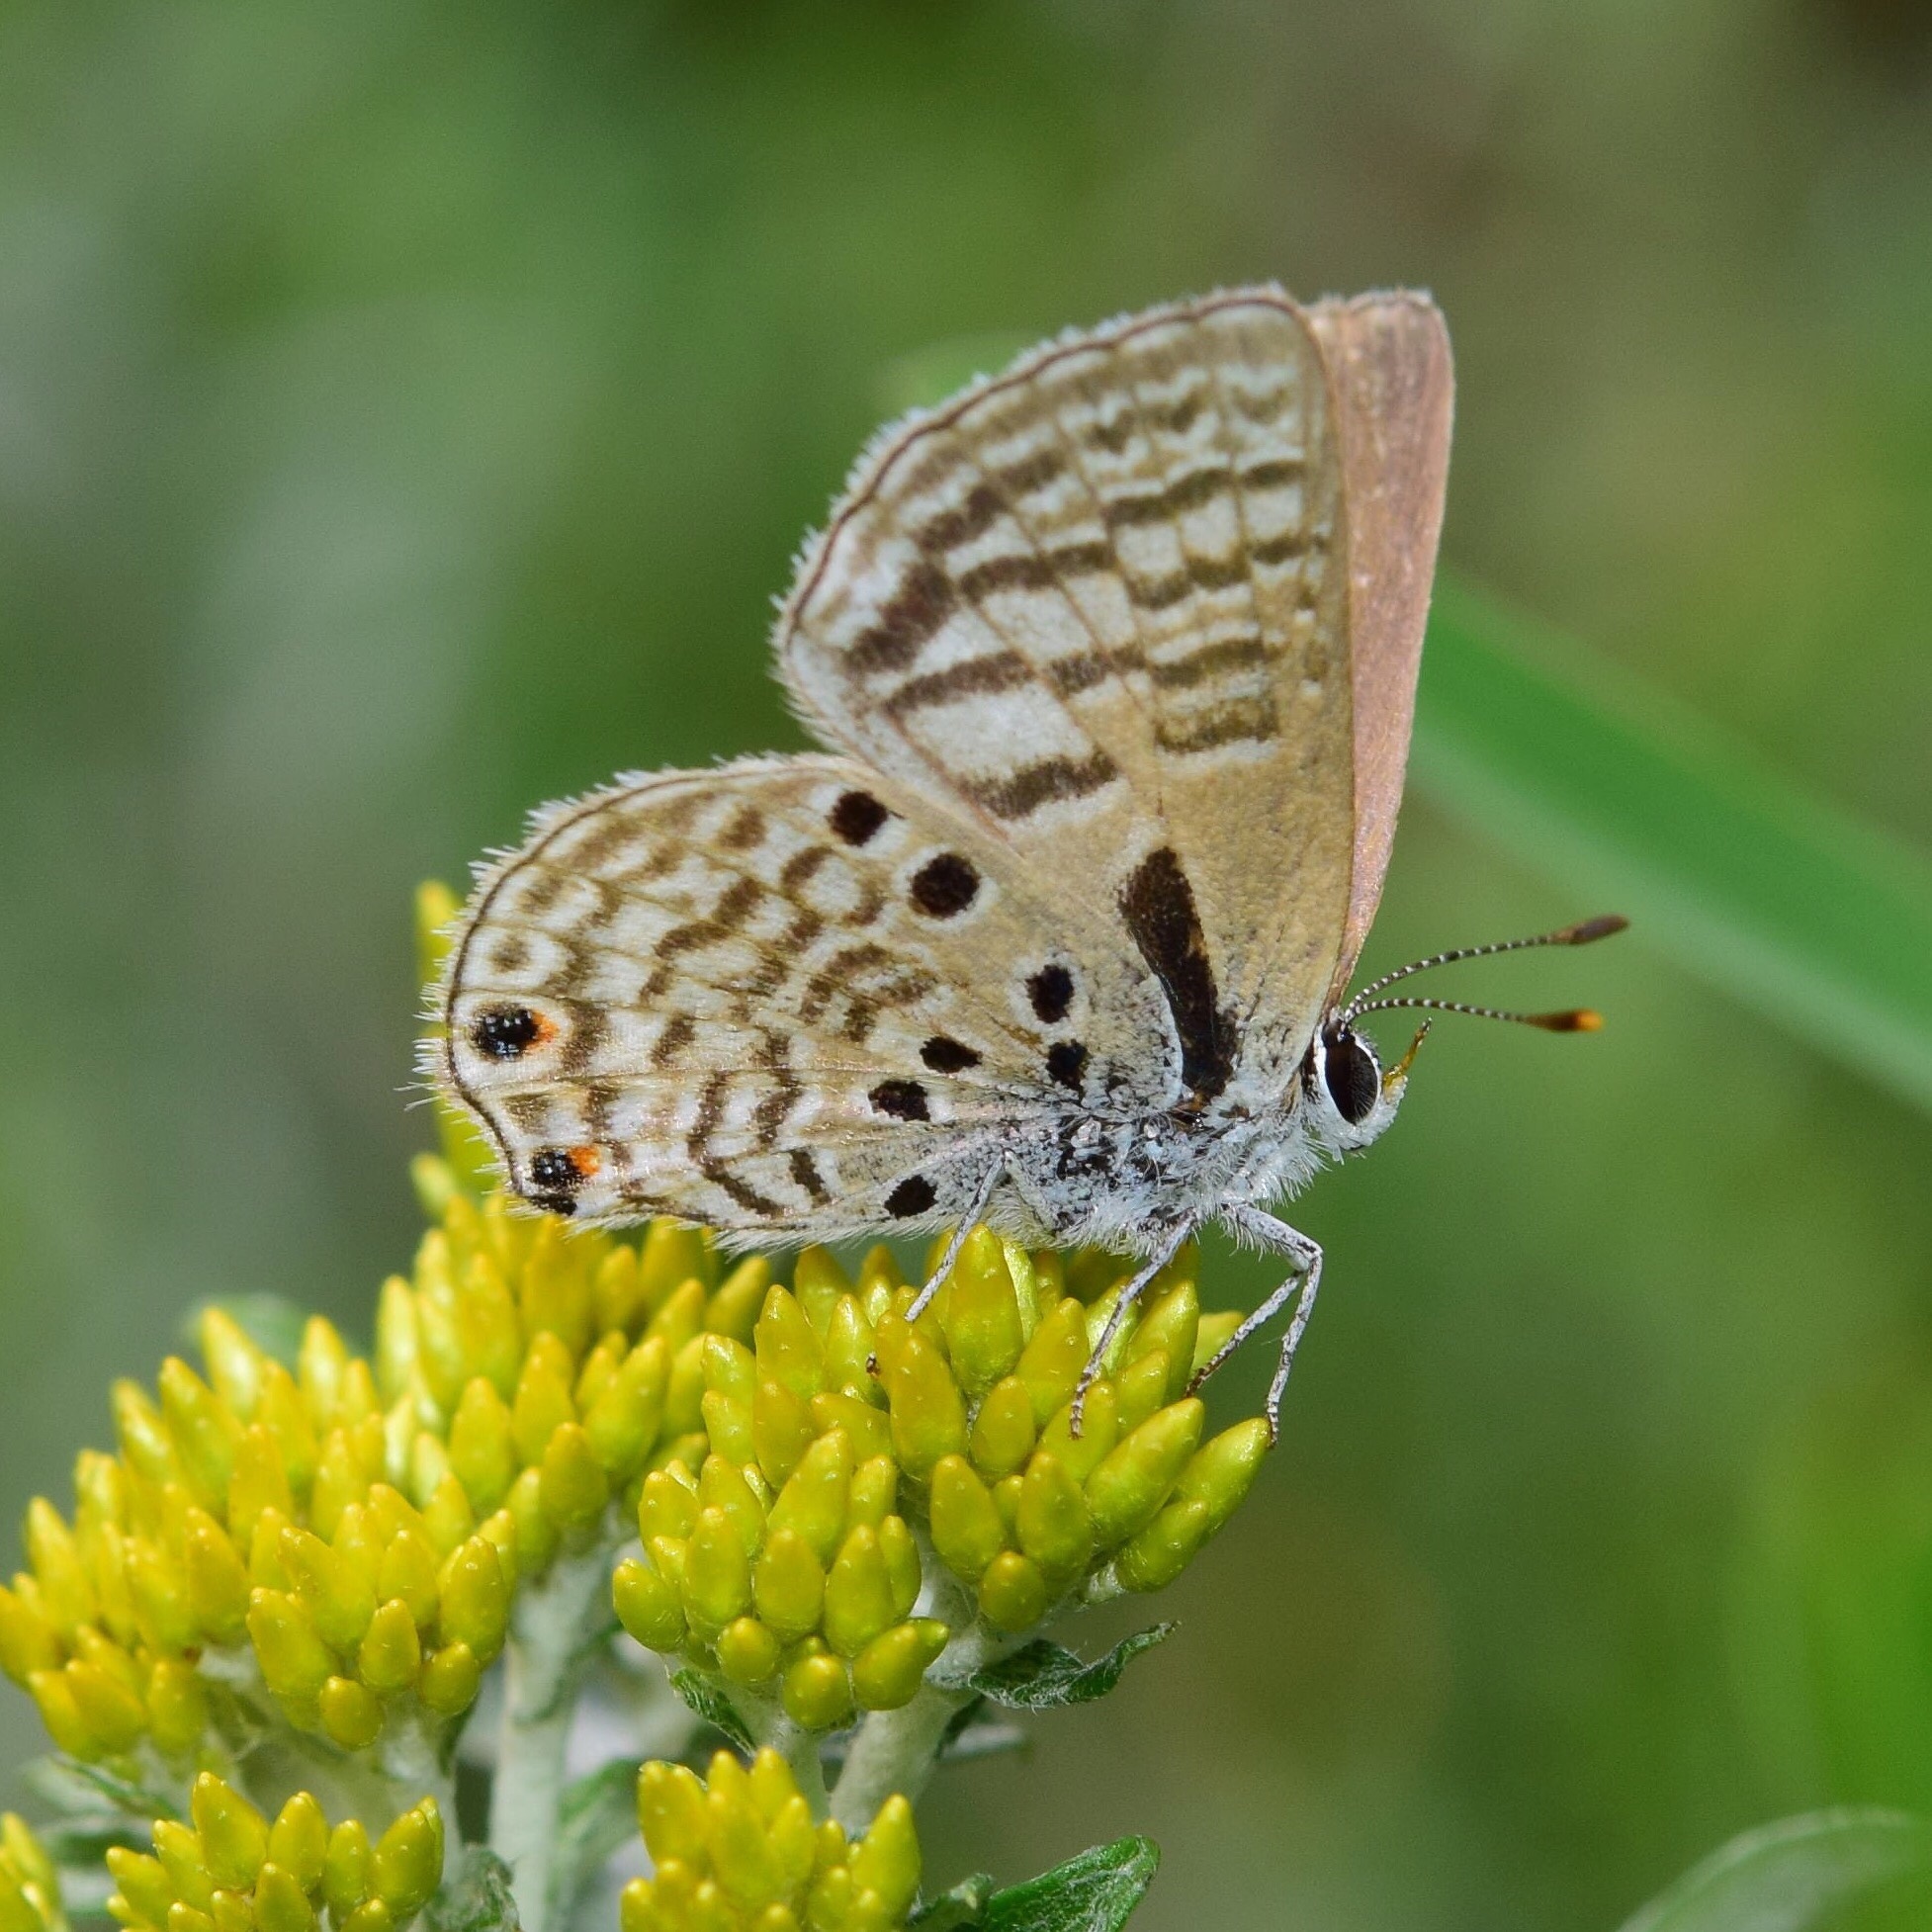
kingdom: Animalia
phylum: Arthropoda
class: Insecta
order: Lepidoptera
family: Lycaenidae
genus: Anthene
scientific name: Anthene amarah
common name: Black-striped hairtail
